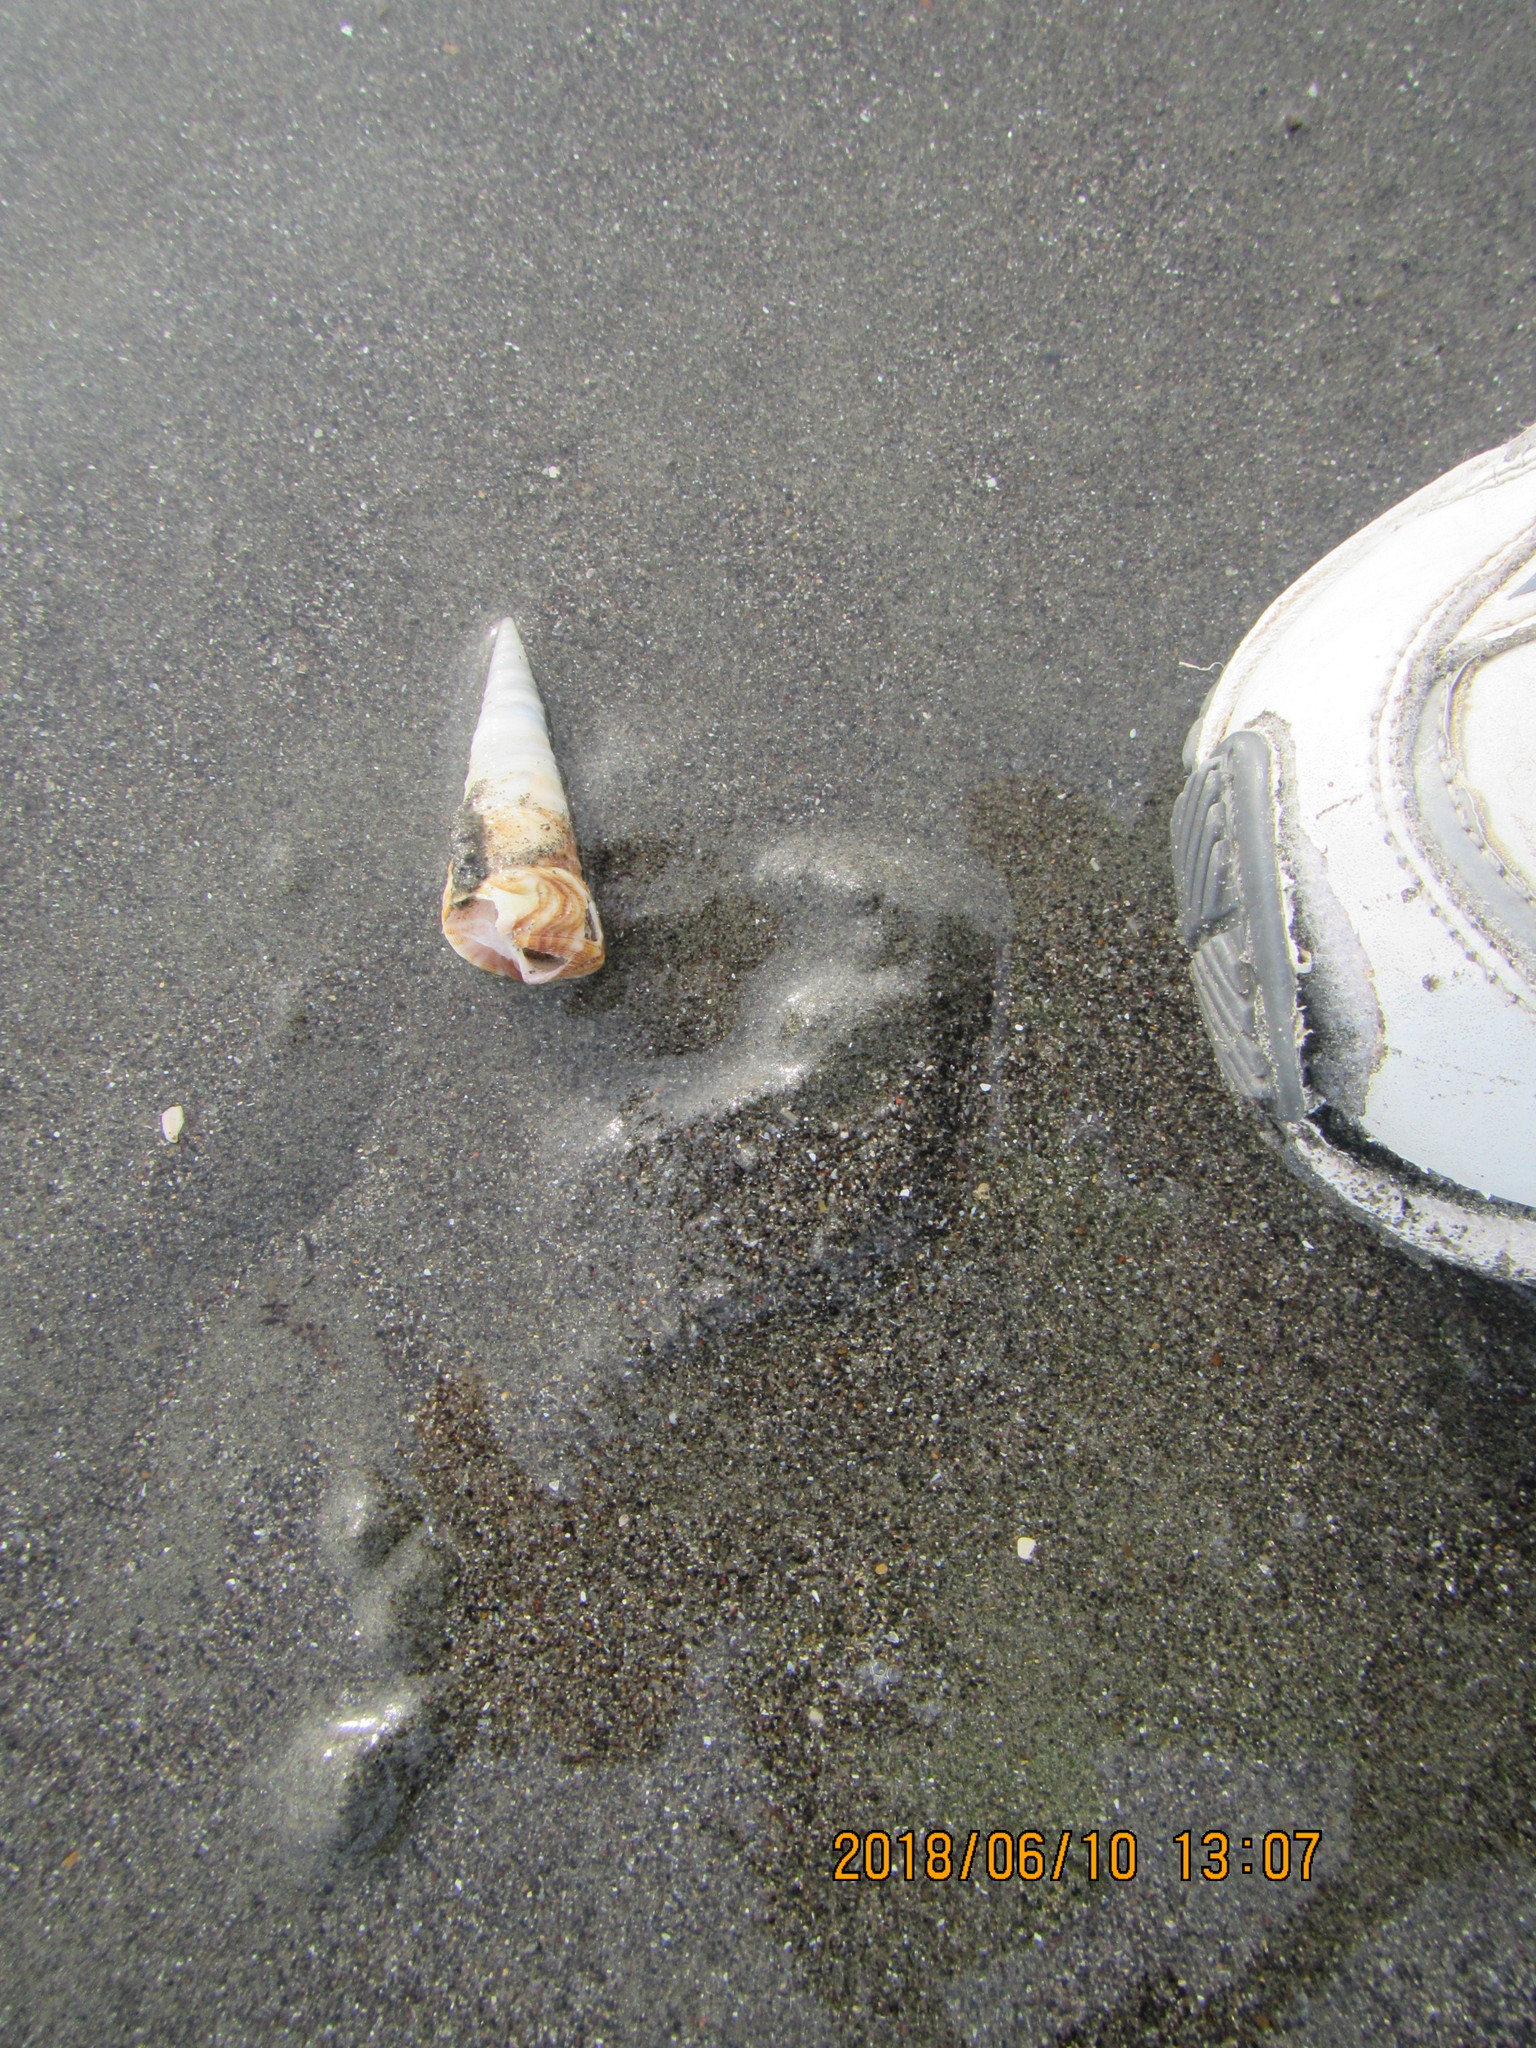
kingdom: Animalia
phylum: Mollusca
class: Gastropoda
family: Turritellidae
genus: Maoricolpus
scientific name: Maoricolpus roseus
